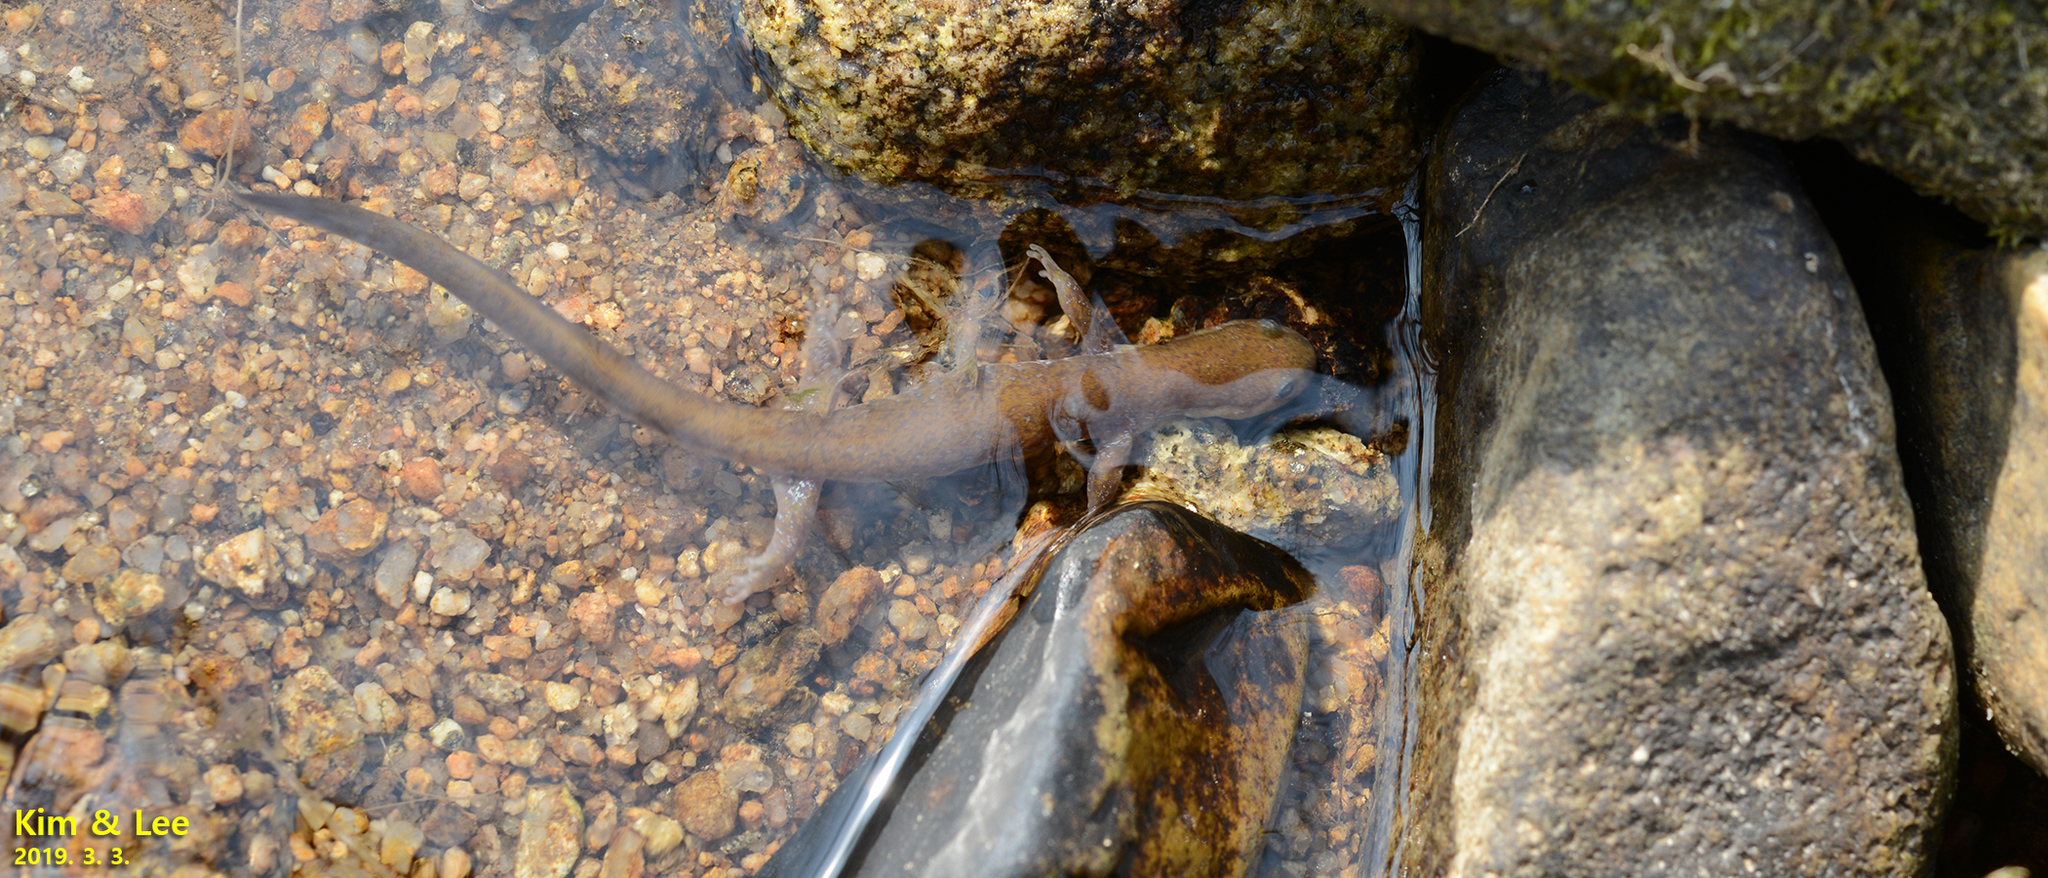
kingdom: Animalia
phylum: Chordata
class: Amphibia
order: Caudata
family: Hynobiidae
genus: Hynobius
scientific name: Hynobius unisacculus
